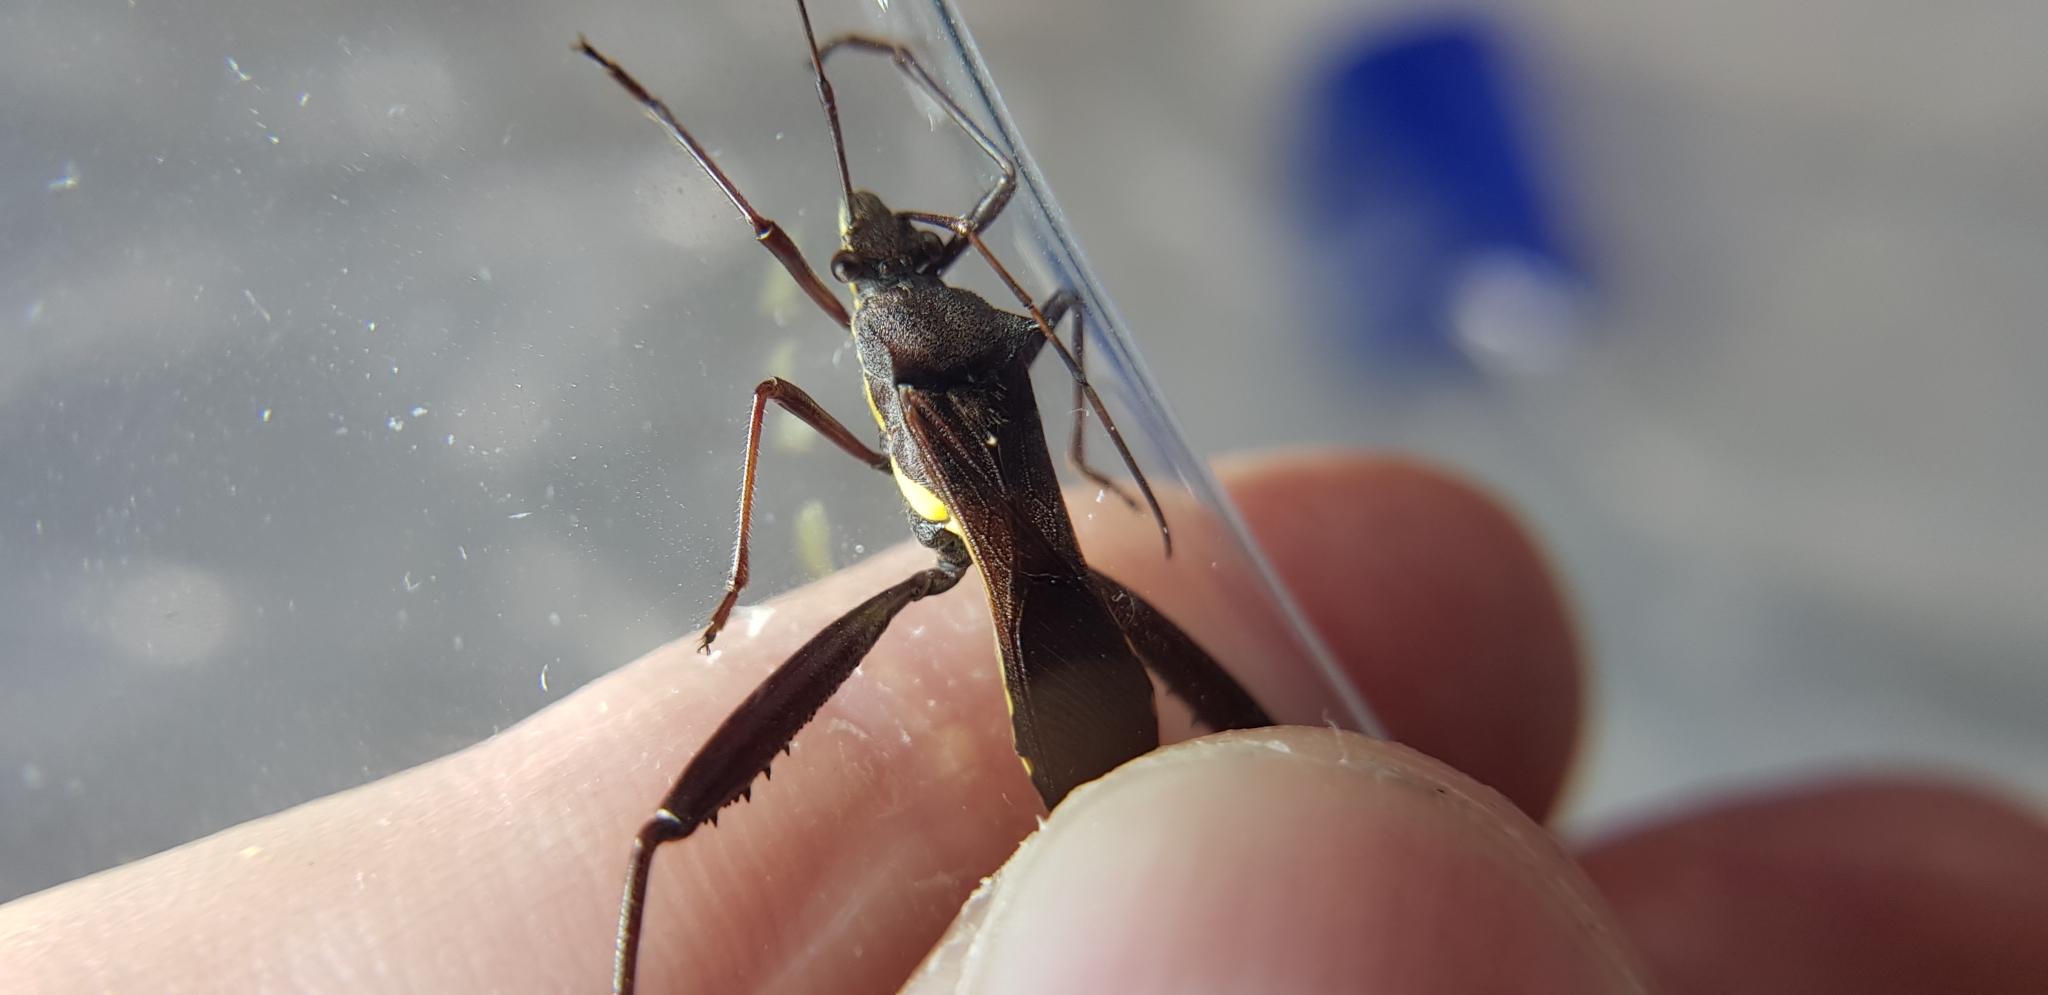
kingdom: Animalia
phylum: Arthropoda
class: Insecta
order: Hemiptera
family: Alydidae
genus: Riptortus
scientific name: Riptortus serripes
